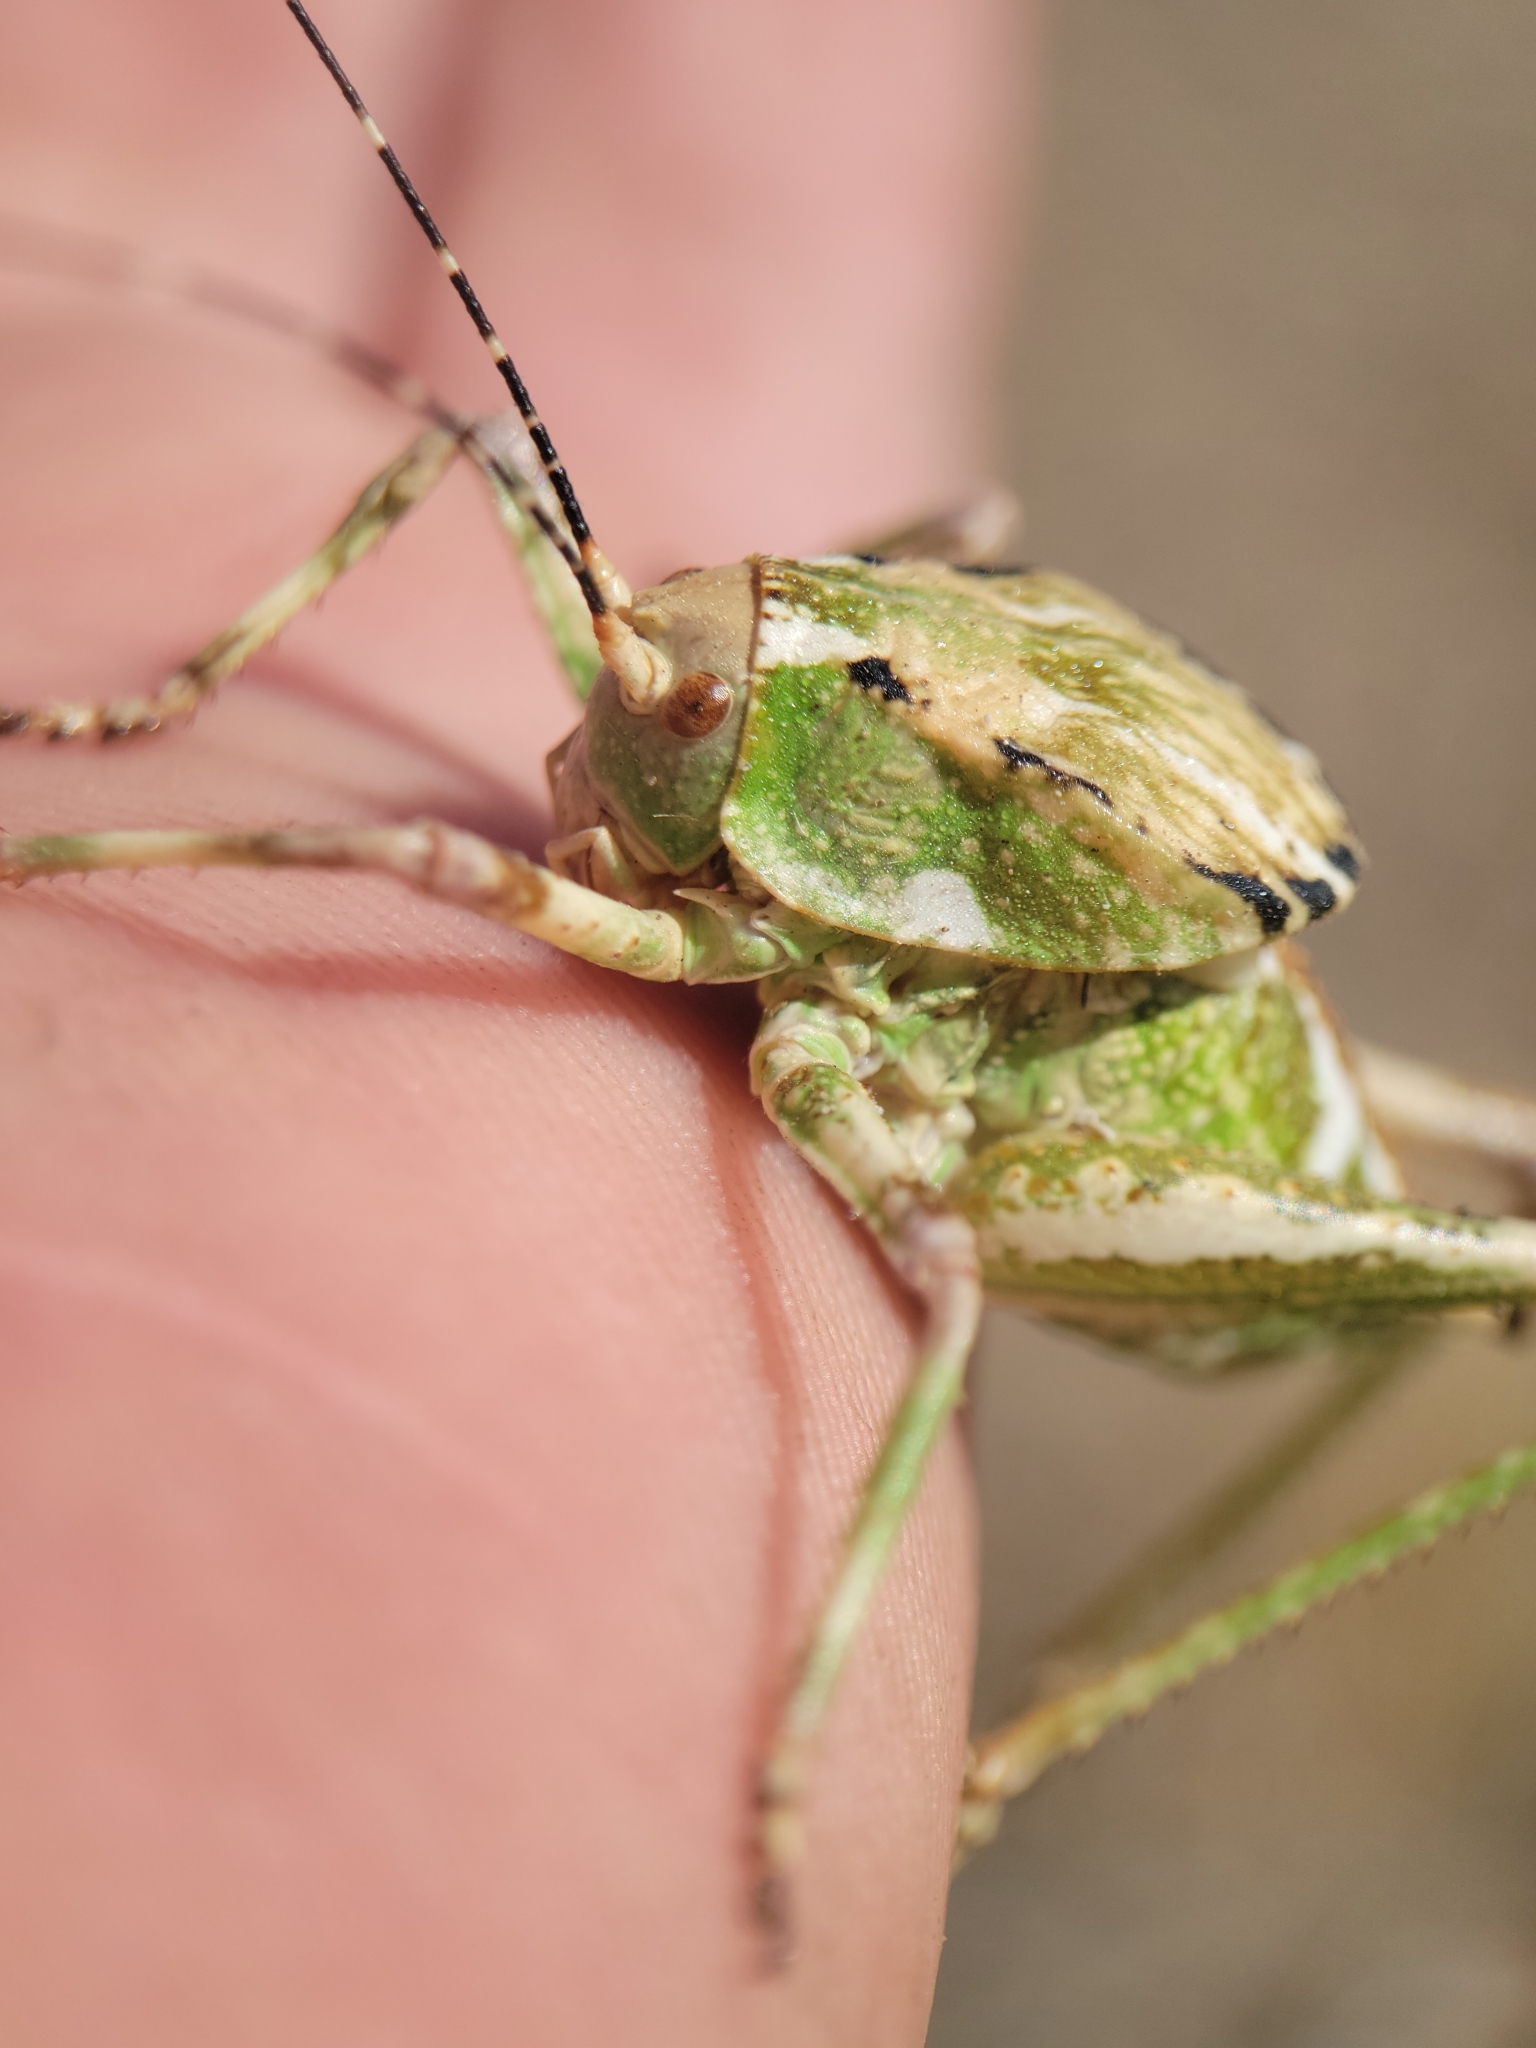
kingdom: Animalia
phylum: Arthropoda
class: Insecta
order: Orthoptera
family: Tettigoniidae
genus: Aglaothorax
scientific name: Aglaothorax ovatus
